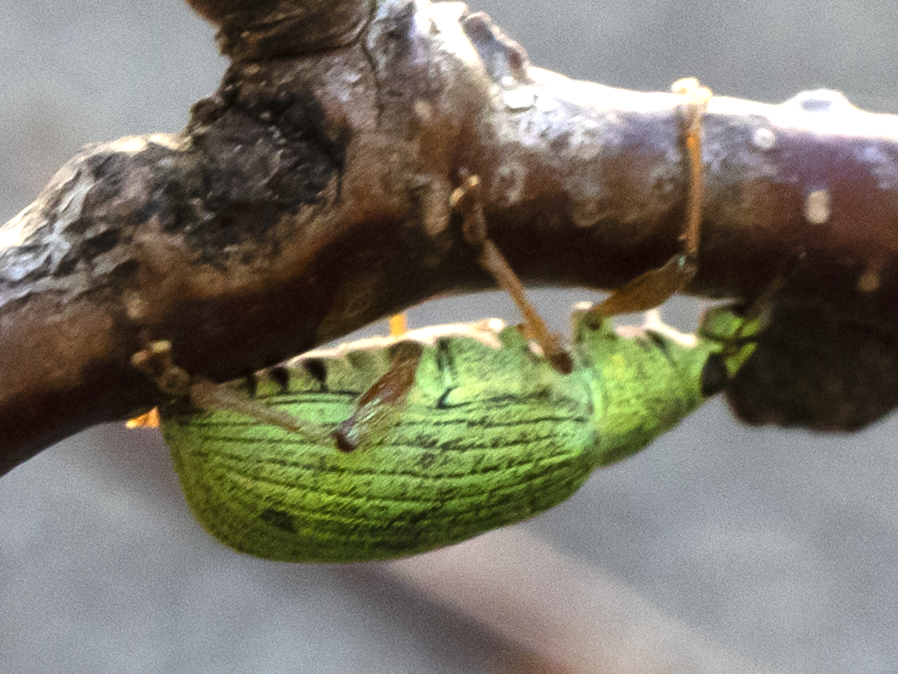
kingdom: Animalia
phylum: Arthropoda
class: Insecta
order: Coleoptera
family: Curculionidae
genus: Polydrusus
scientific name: Polydrusus formosus
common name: Weevil
